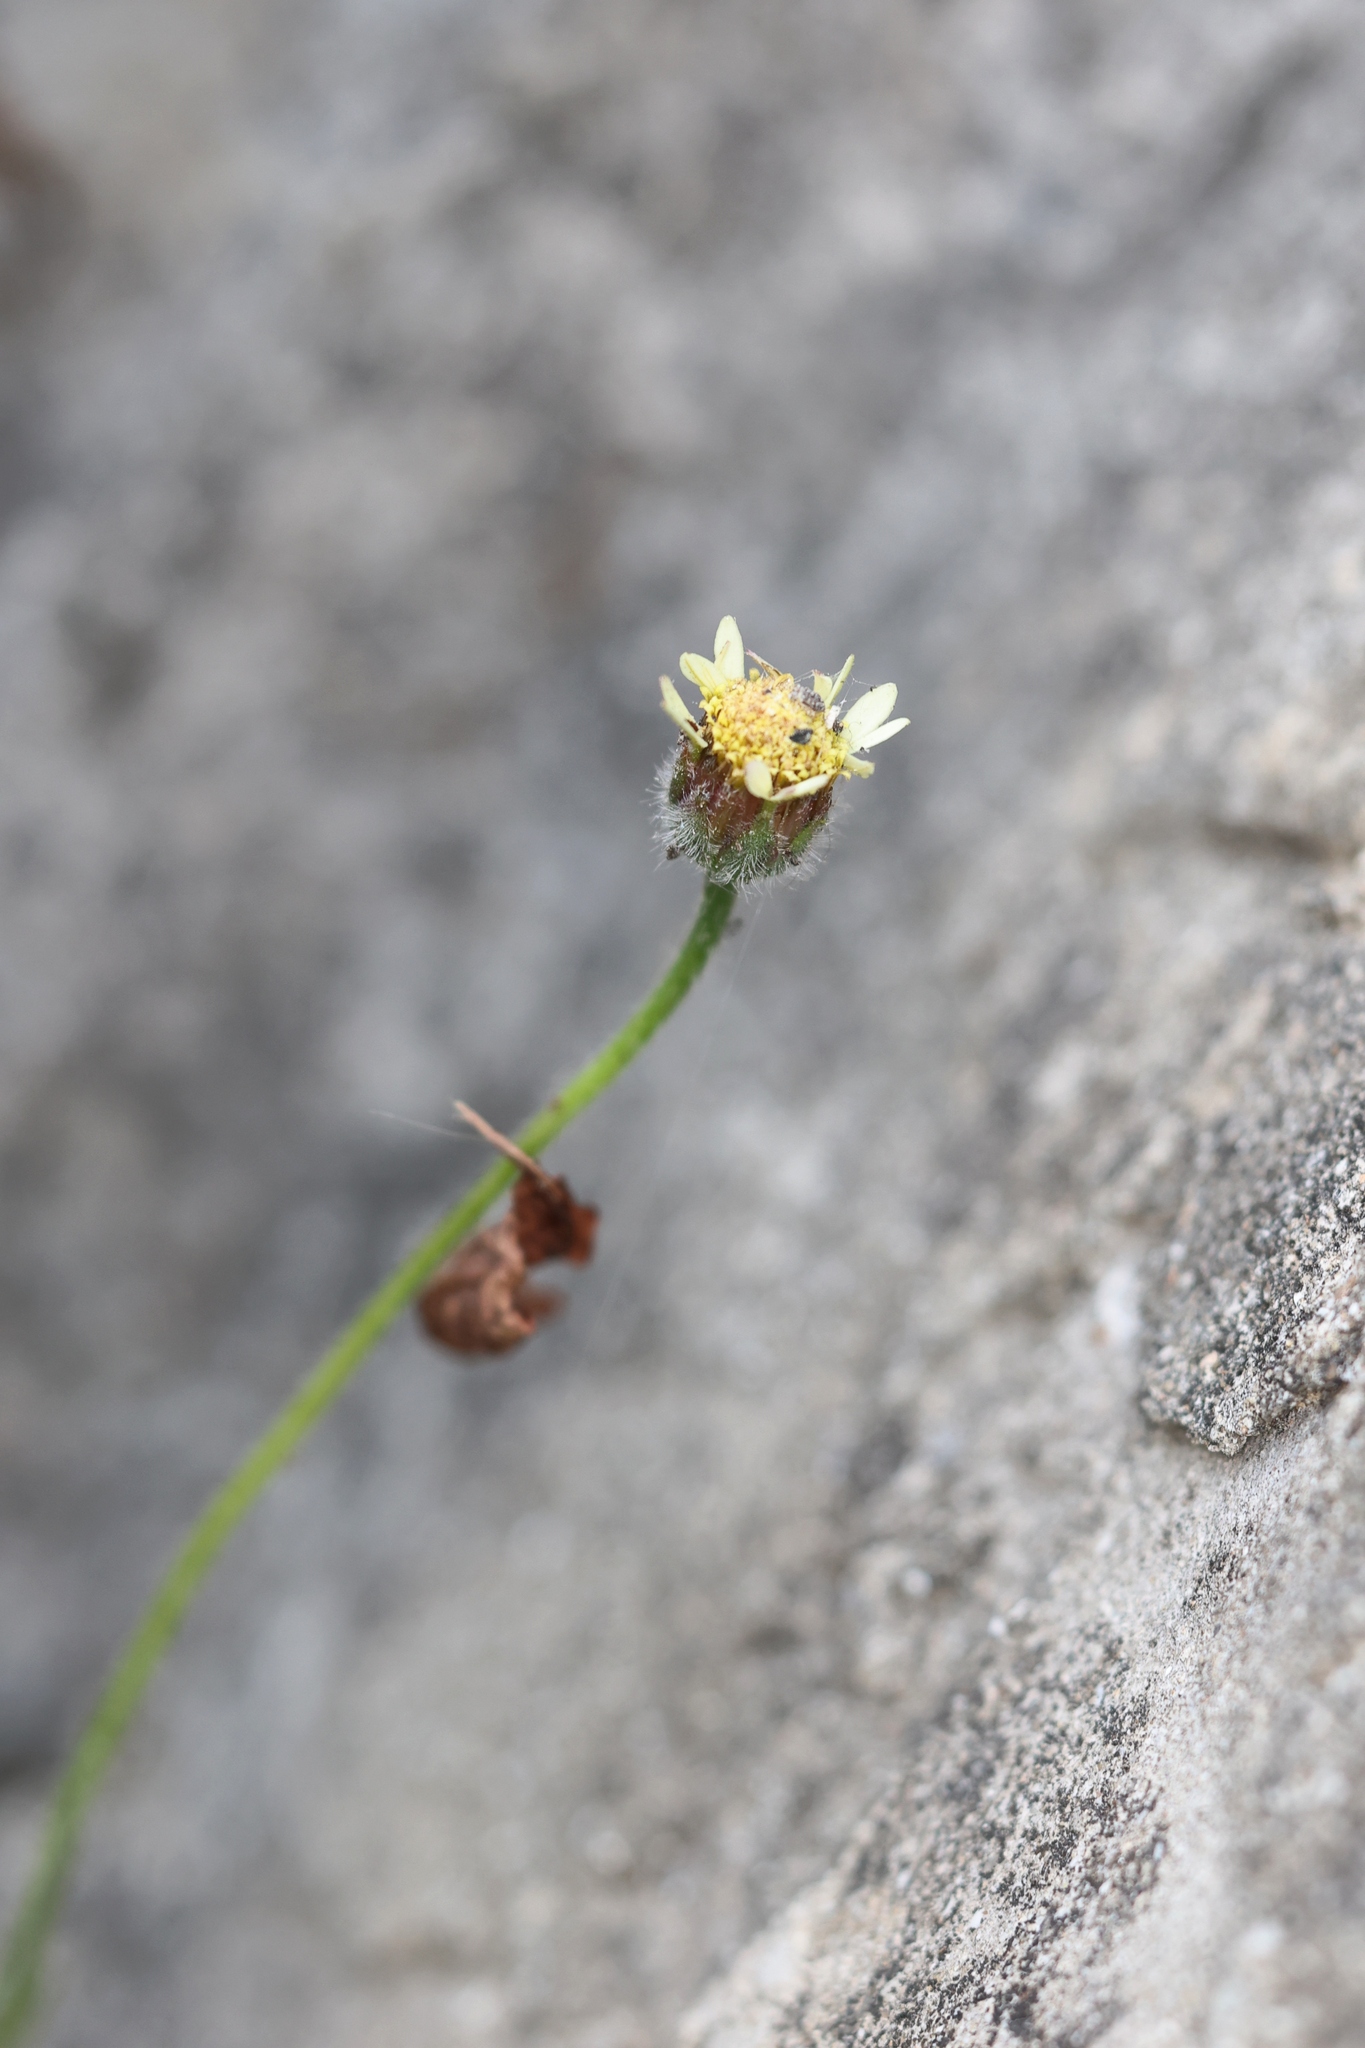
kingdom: Plantae
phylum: Tracheophyta
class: Magnoliopsida
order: Asterales
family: Asteraceae
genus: Sphagneticola
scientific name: Sphagneticola trilobata
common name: Bay biscayne creeping-oxeye
